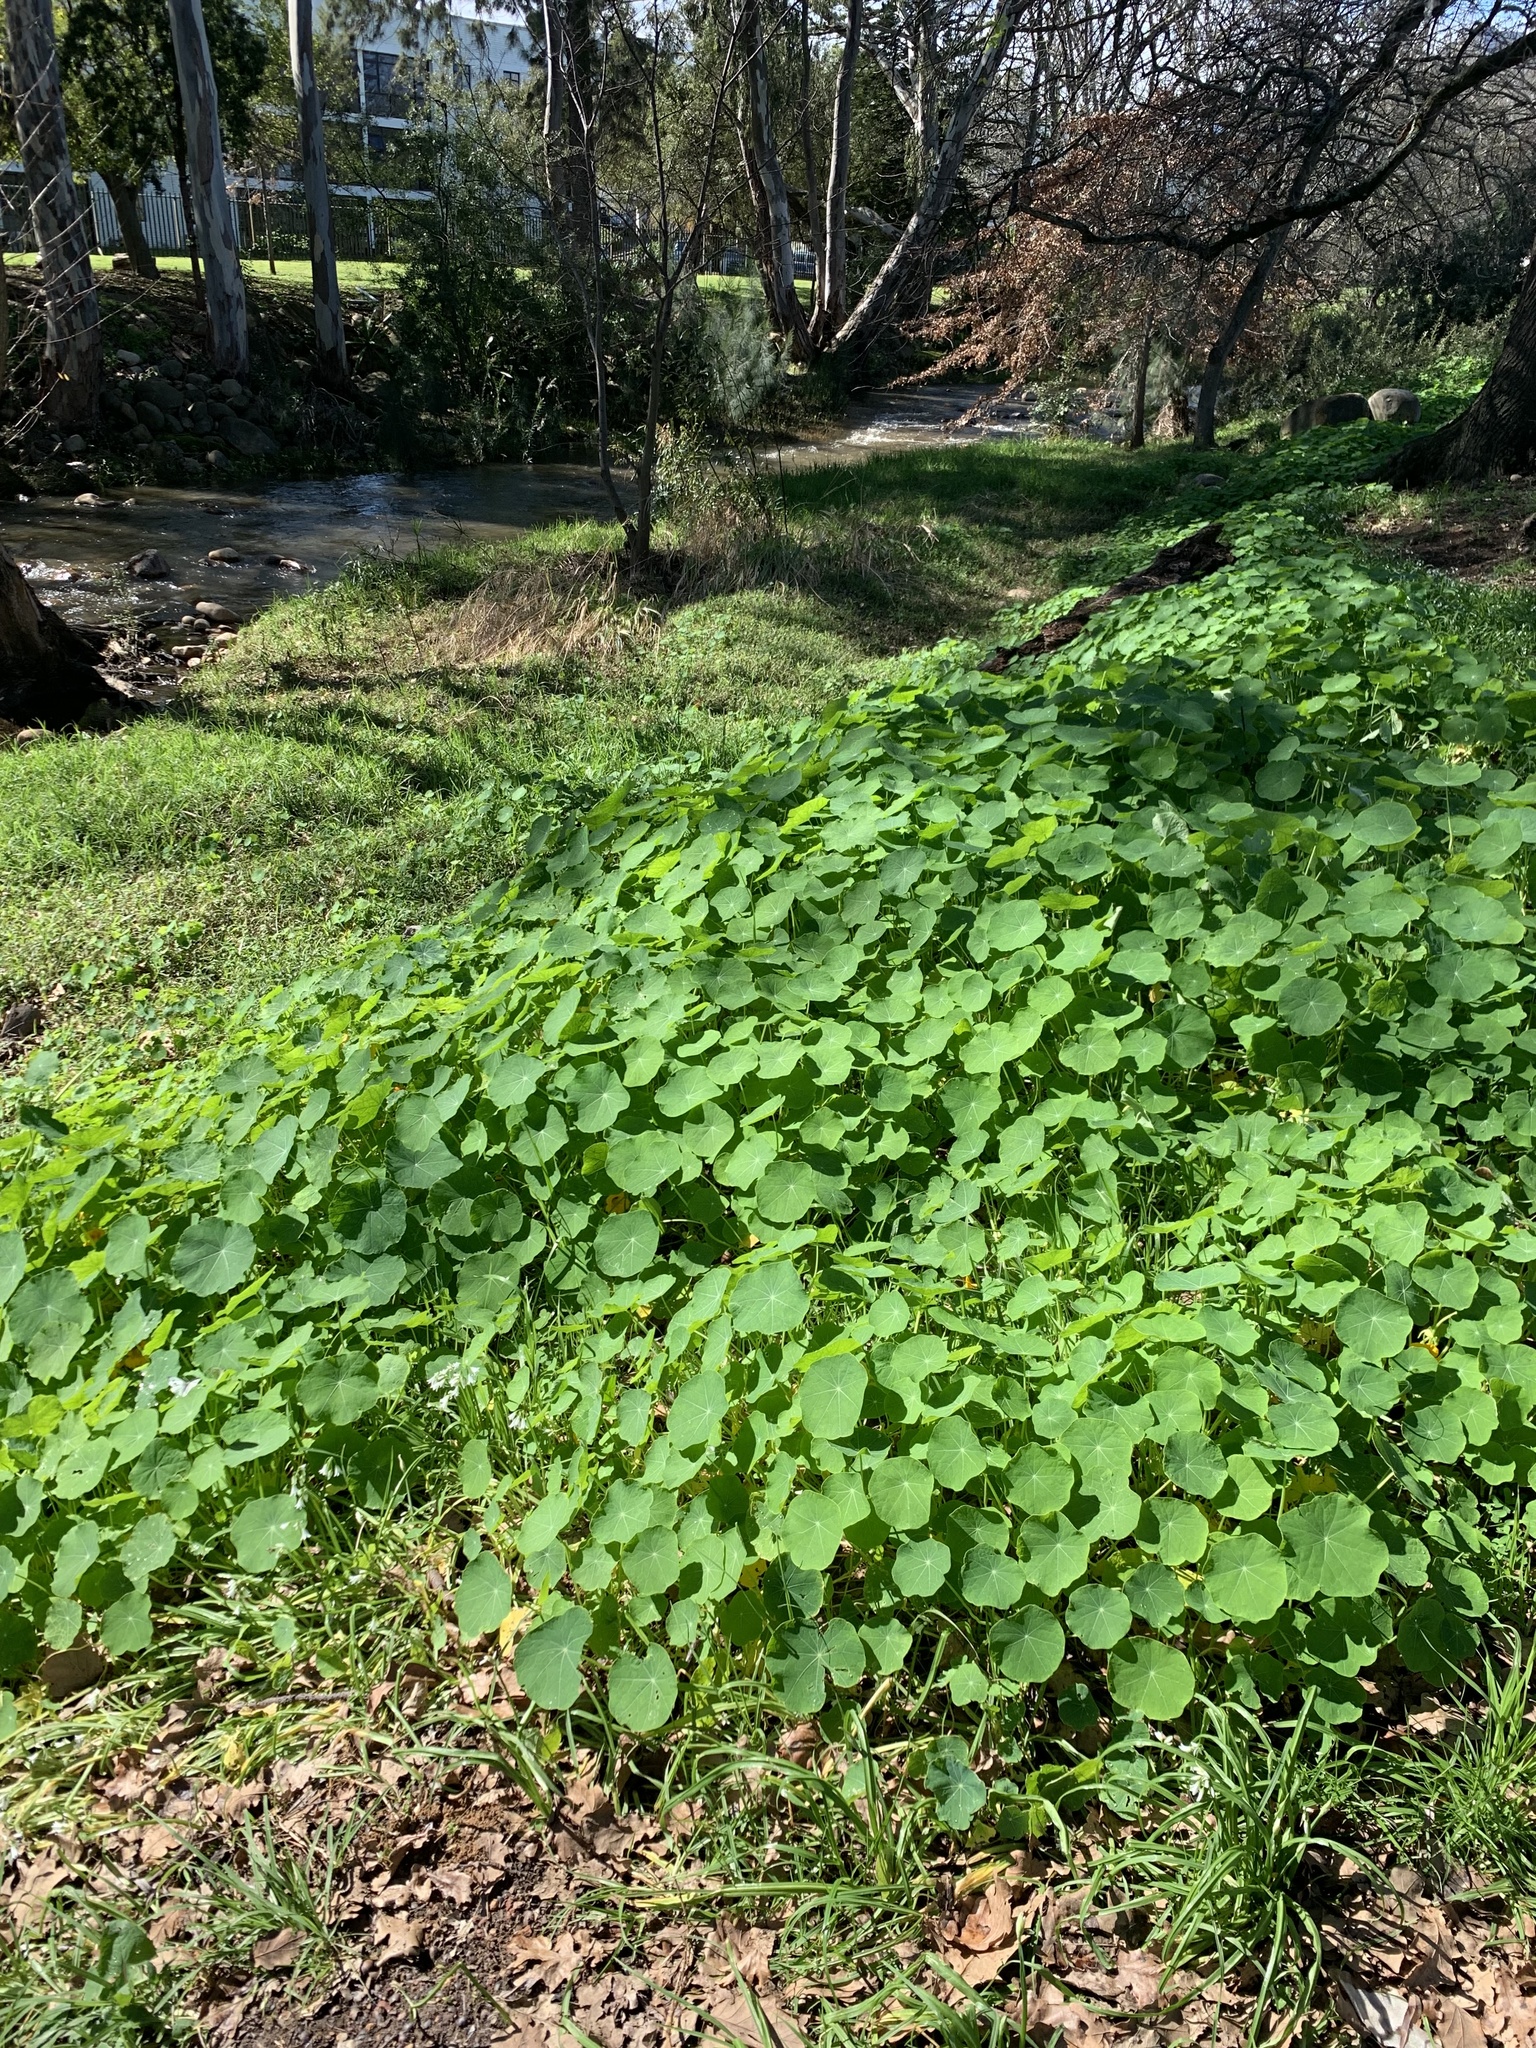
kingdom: Plantae
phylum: Tracheophyta
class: Magnoliopsida
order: Brassicales
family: Tropaeolaceae
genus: Tropaeolum
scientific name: Tropaeolum majus
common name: Nasturtium
